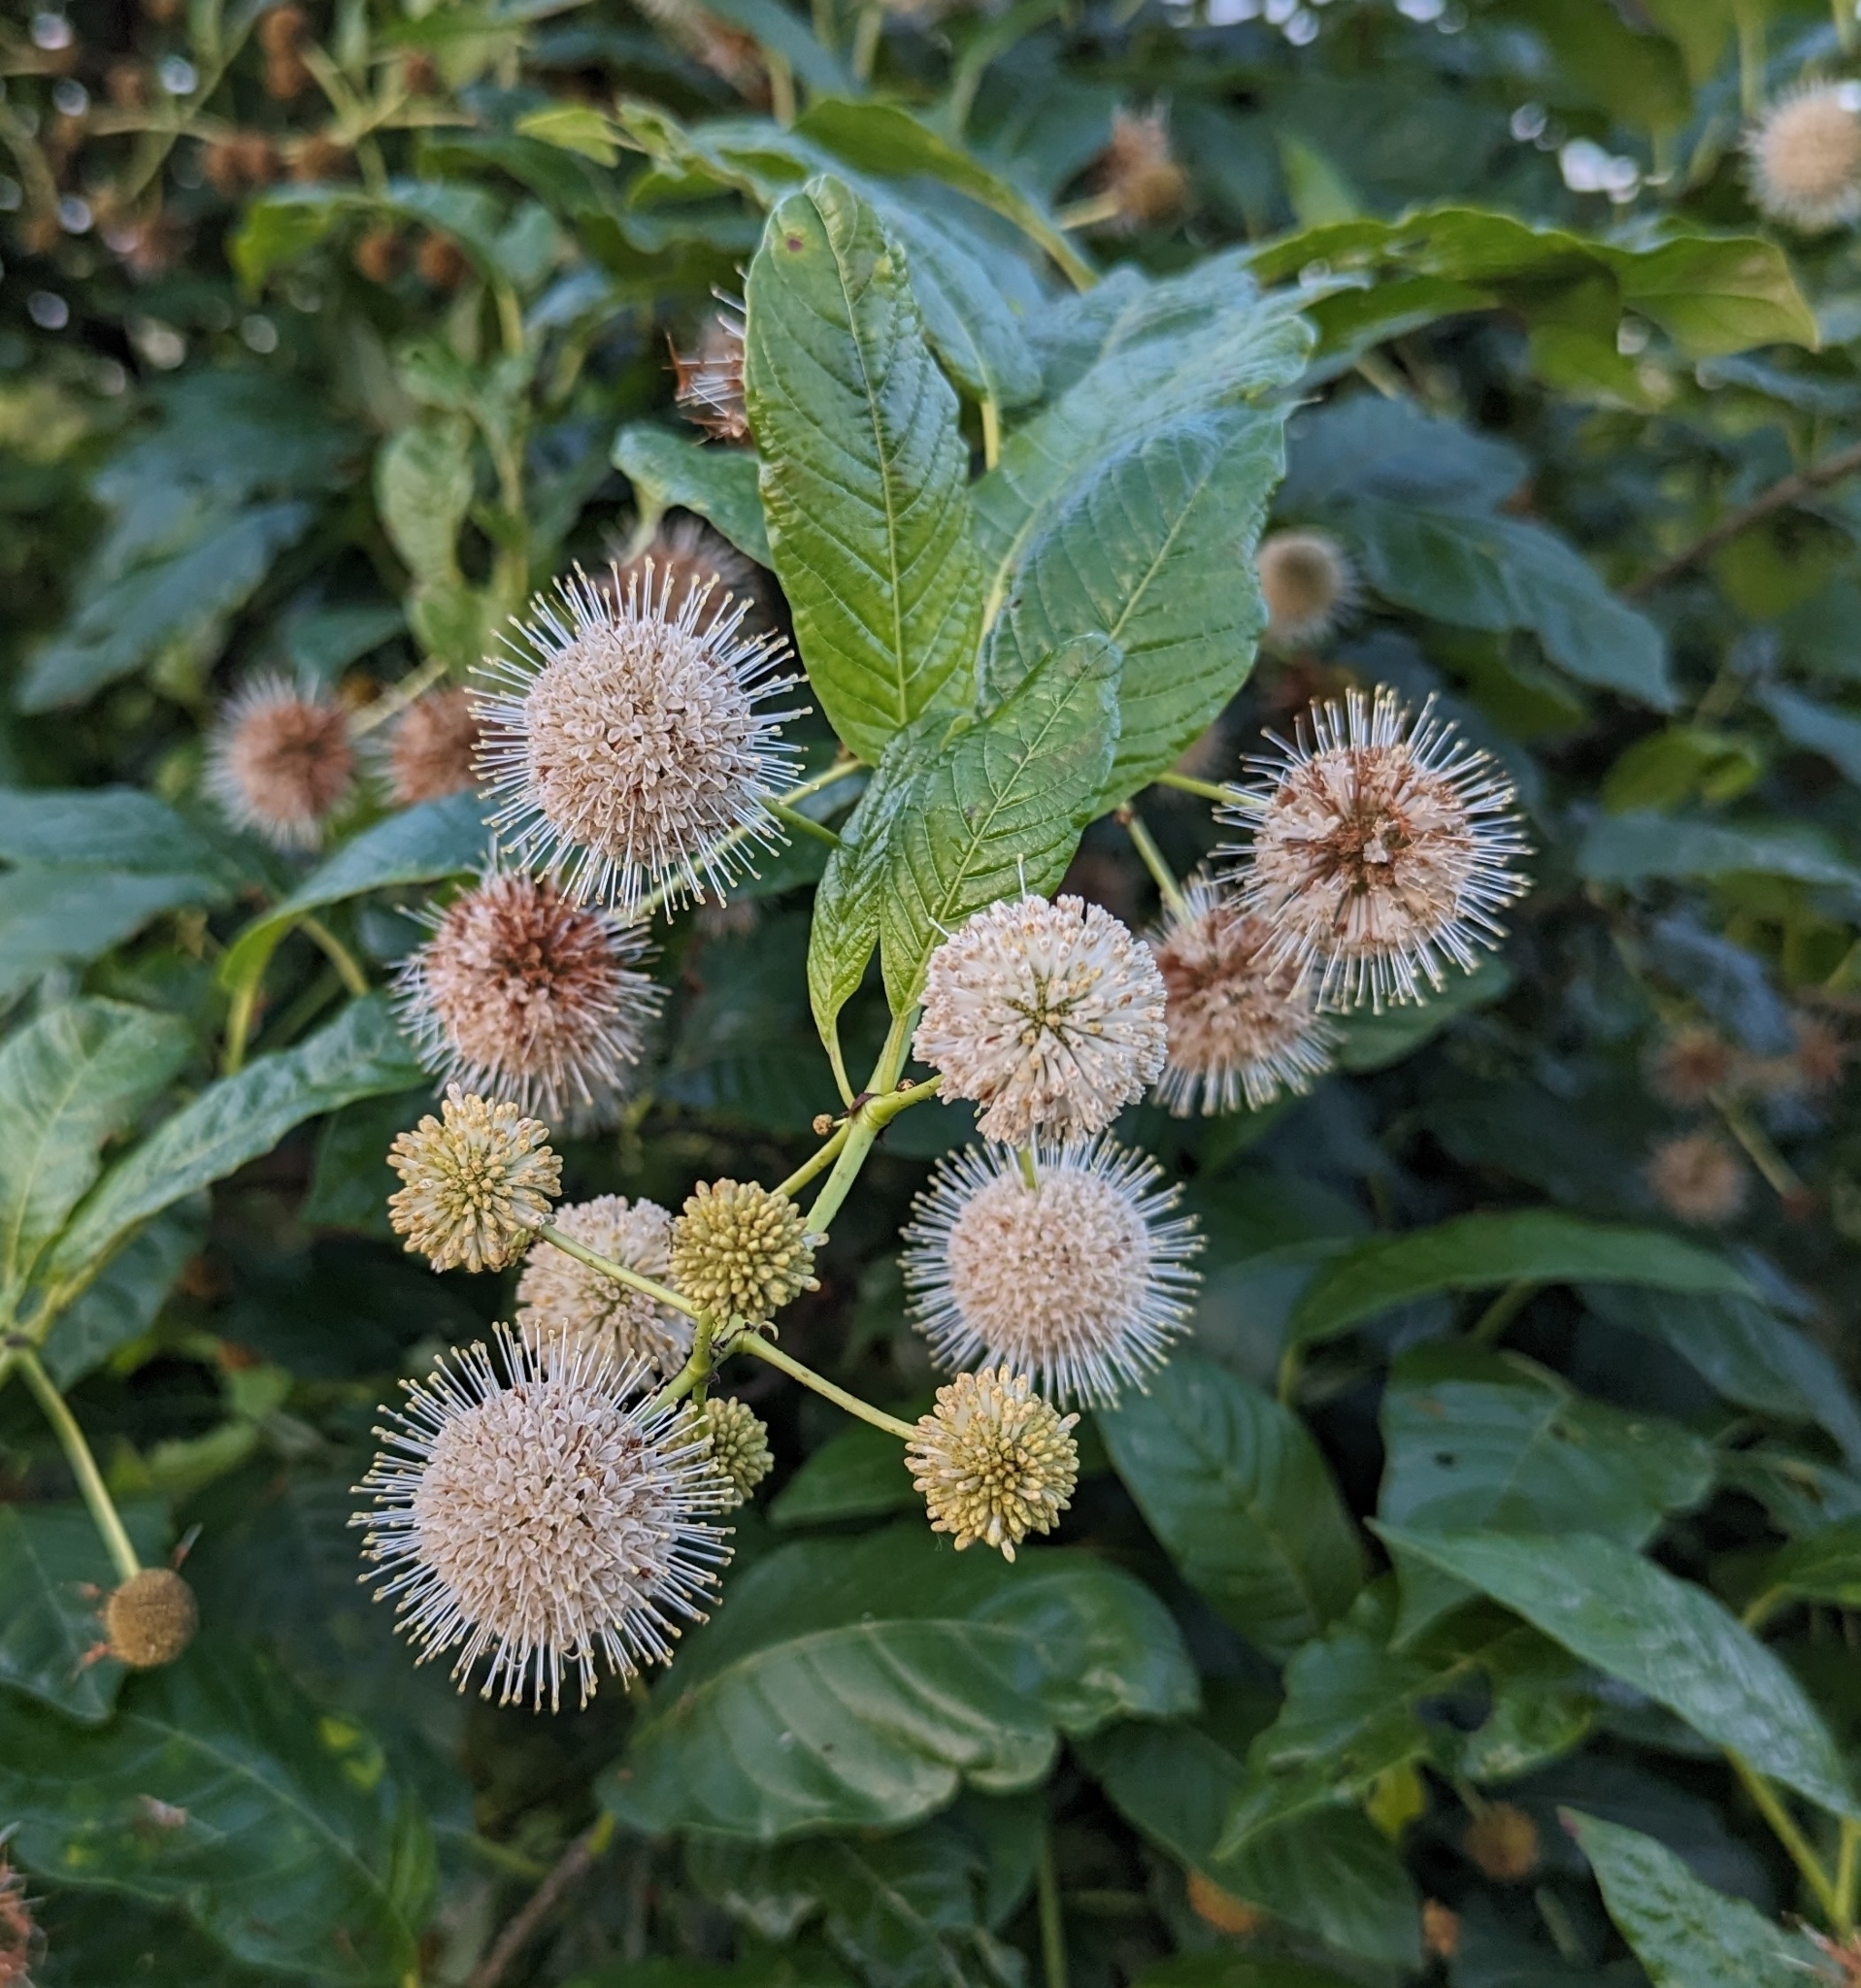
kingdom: Plantae
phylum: Tracheophyta
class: Magnoliopsida
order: Gentianales
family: Rubiaceae
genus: Cephalanthus
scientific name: Cephalanthus occidentalis
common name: Button-willow
